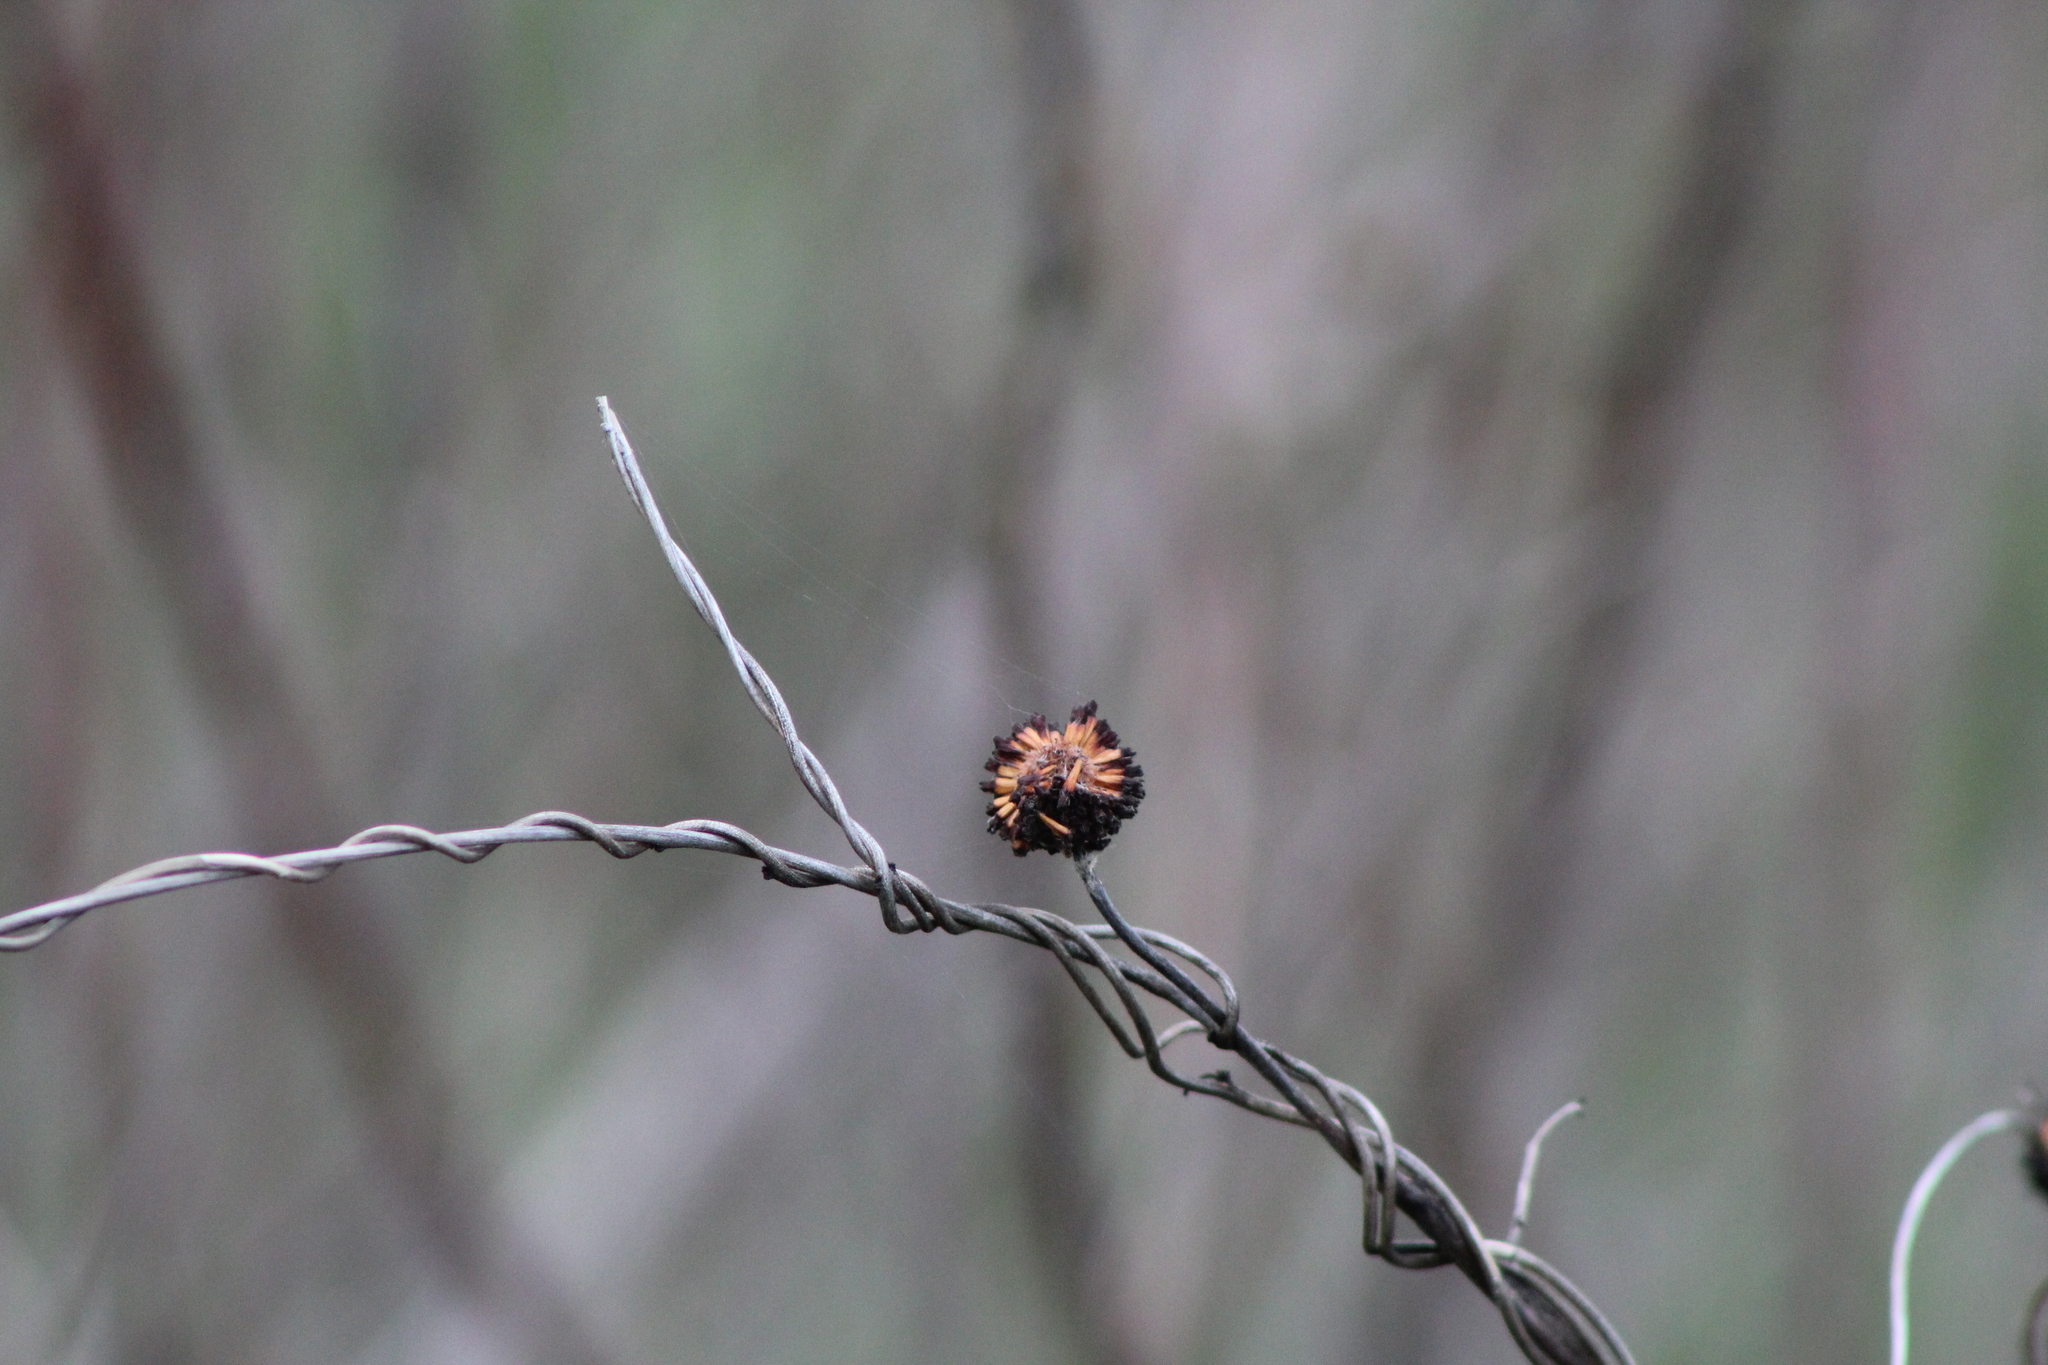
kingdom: Plantae
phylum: Tracheophyta
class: Magnoliopsida
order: Gentianales
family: Rubiaceae
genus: Cephalanthus
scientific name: Cephalanthus occidentalis
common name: Button-willow
